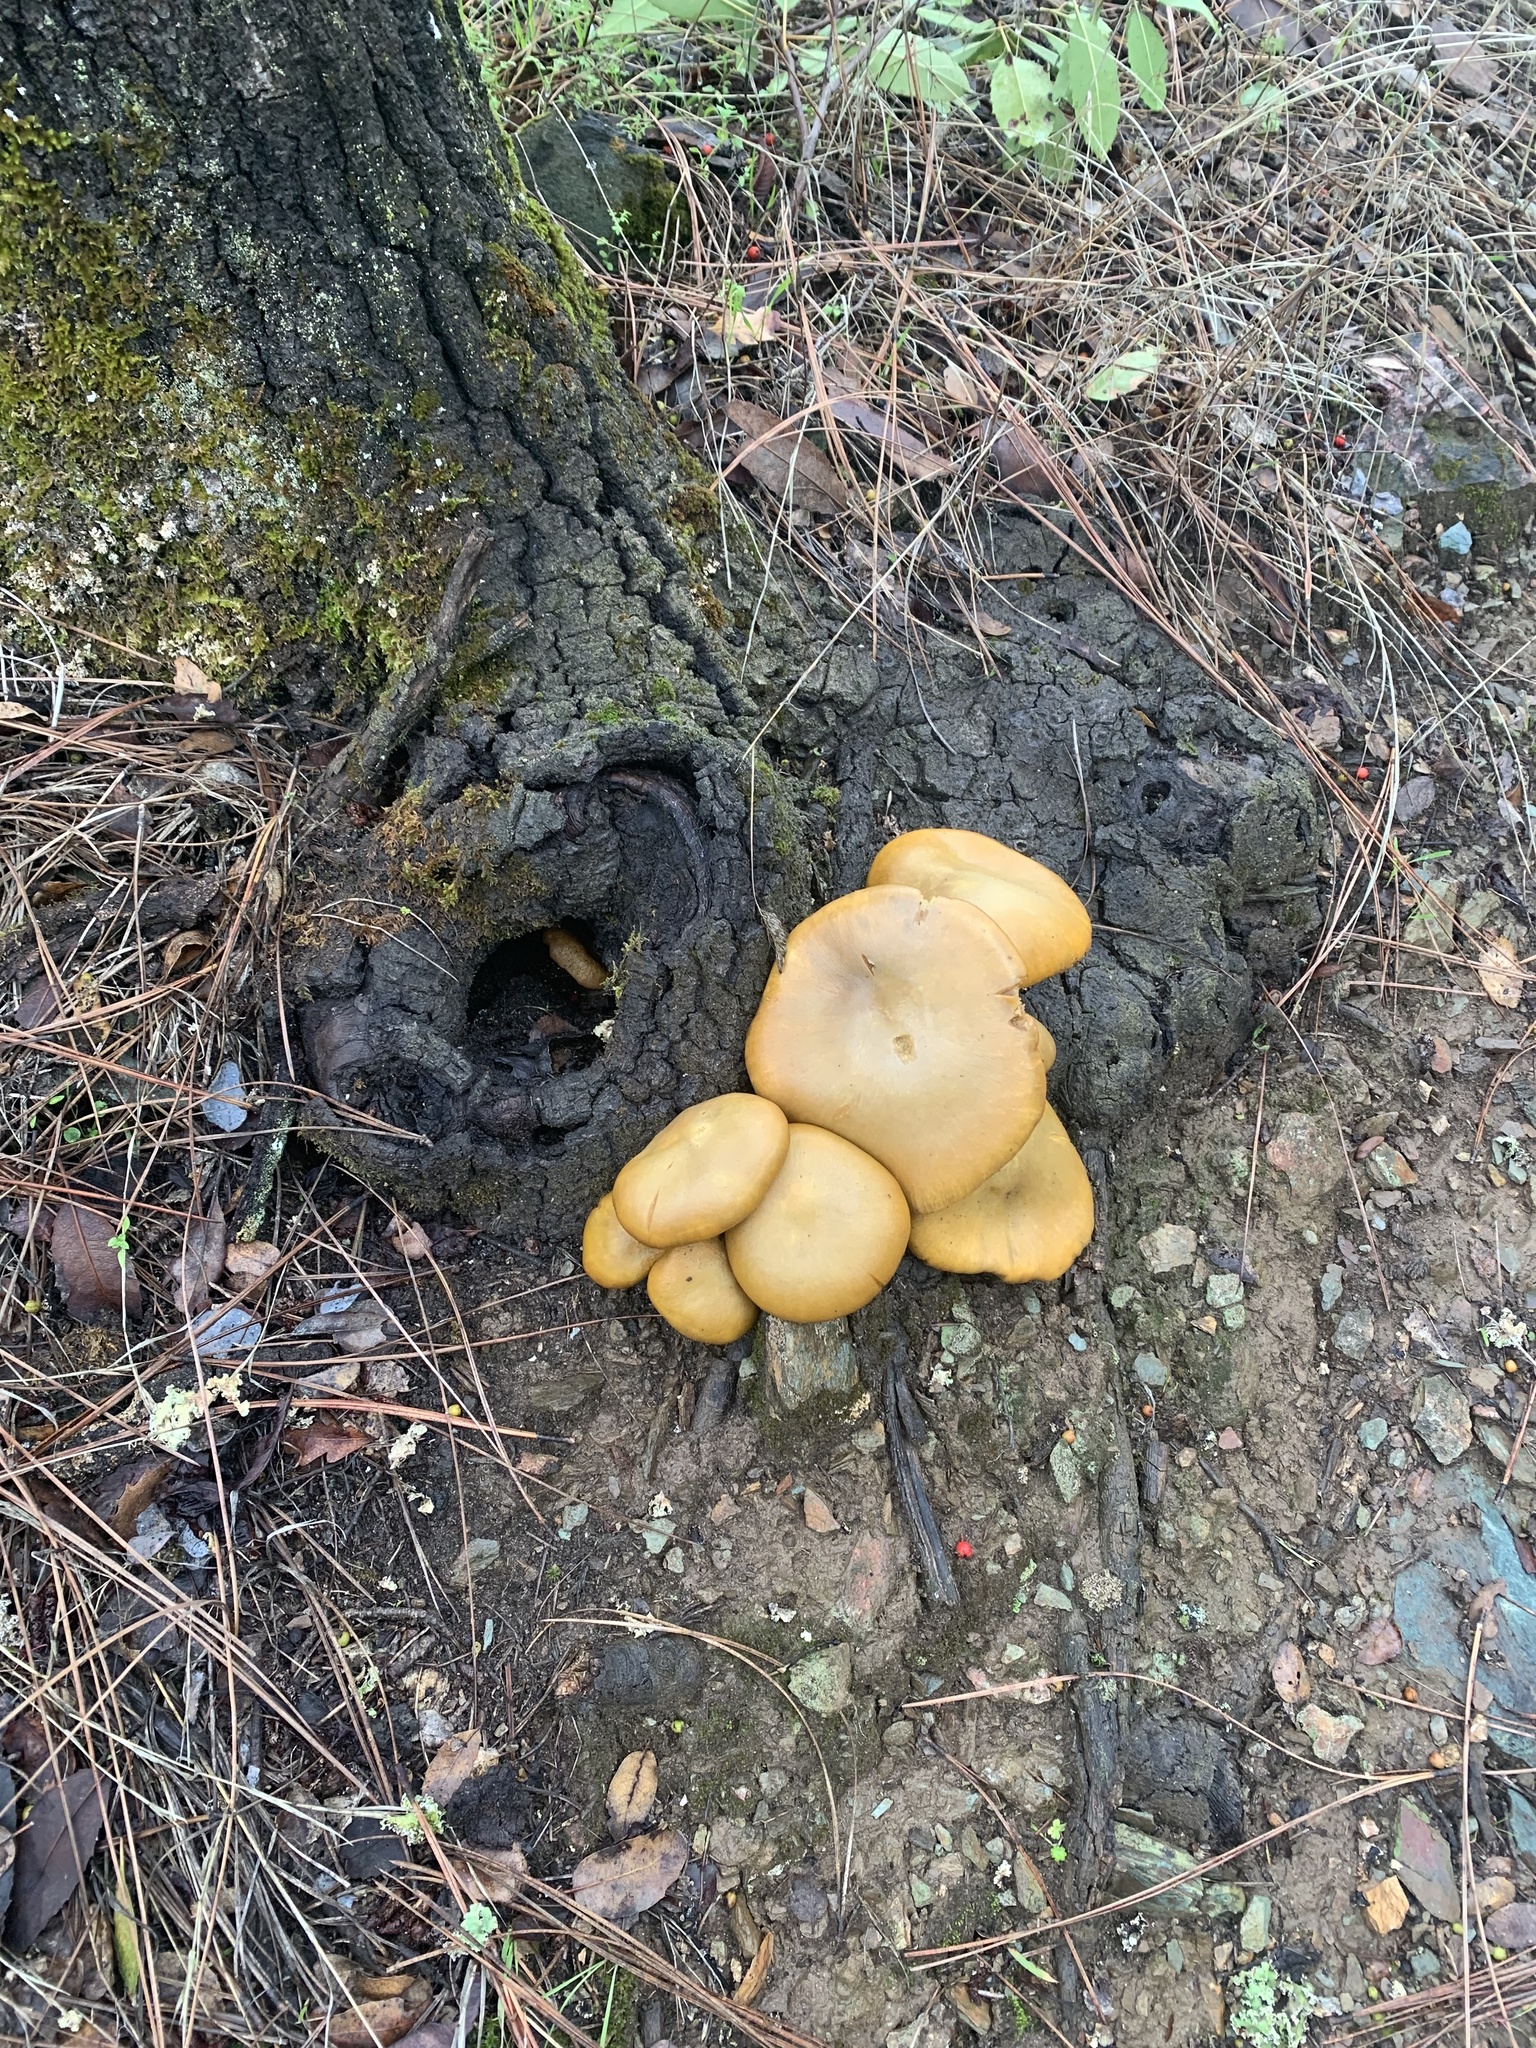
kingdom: Fungi
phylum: Basidiomycota
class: Agaricomycetes
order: Agaricales
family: Omphalotaceae
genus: Omphalotus
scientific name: Omphalotus olivascens
